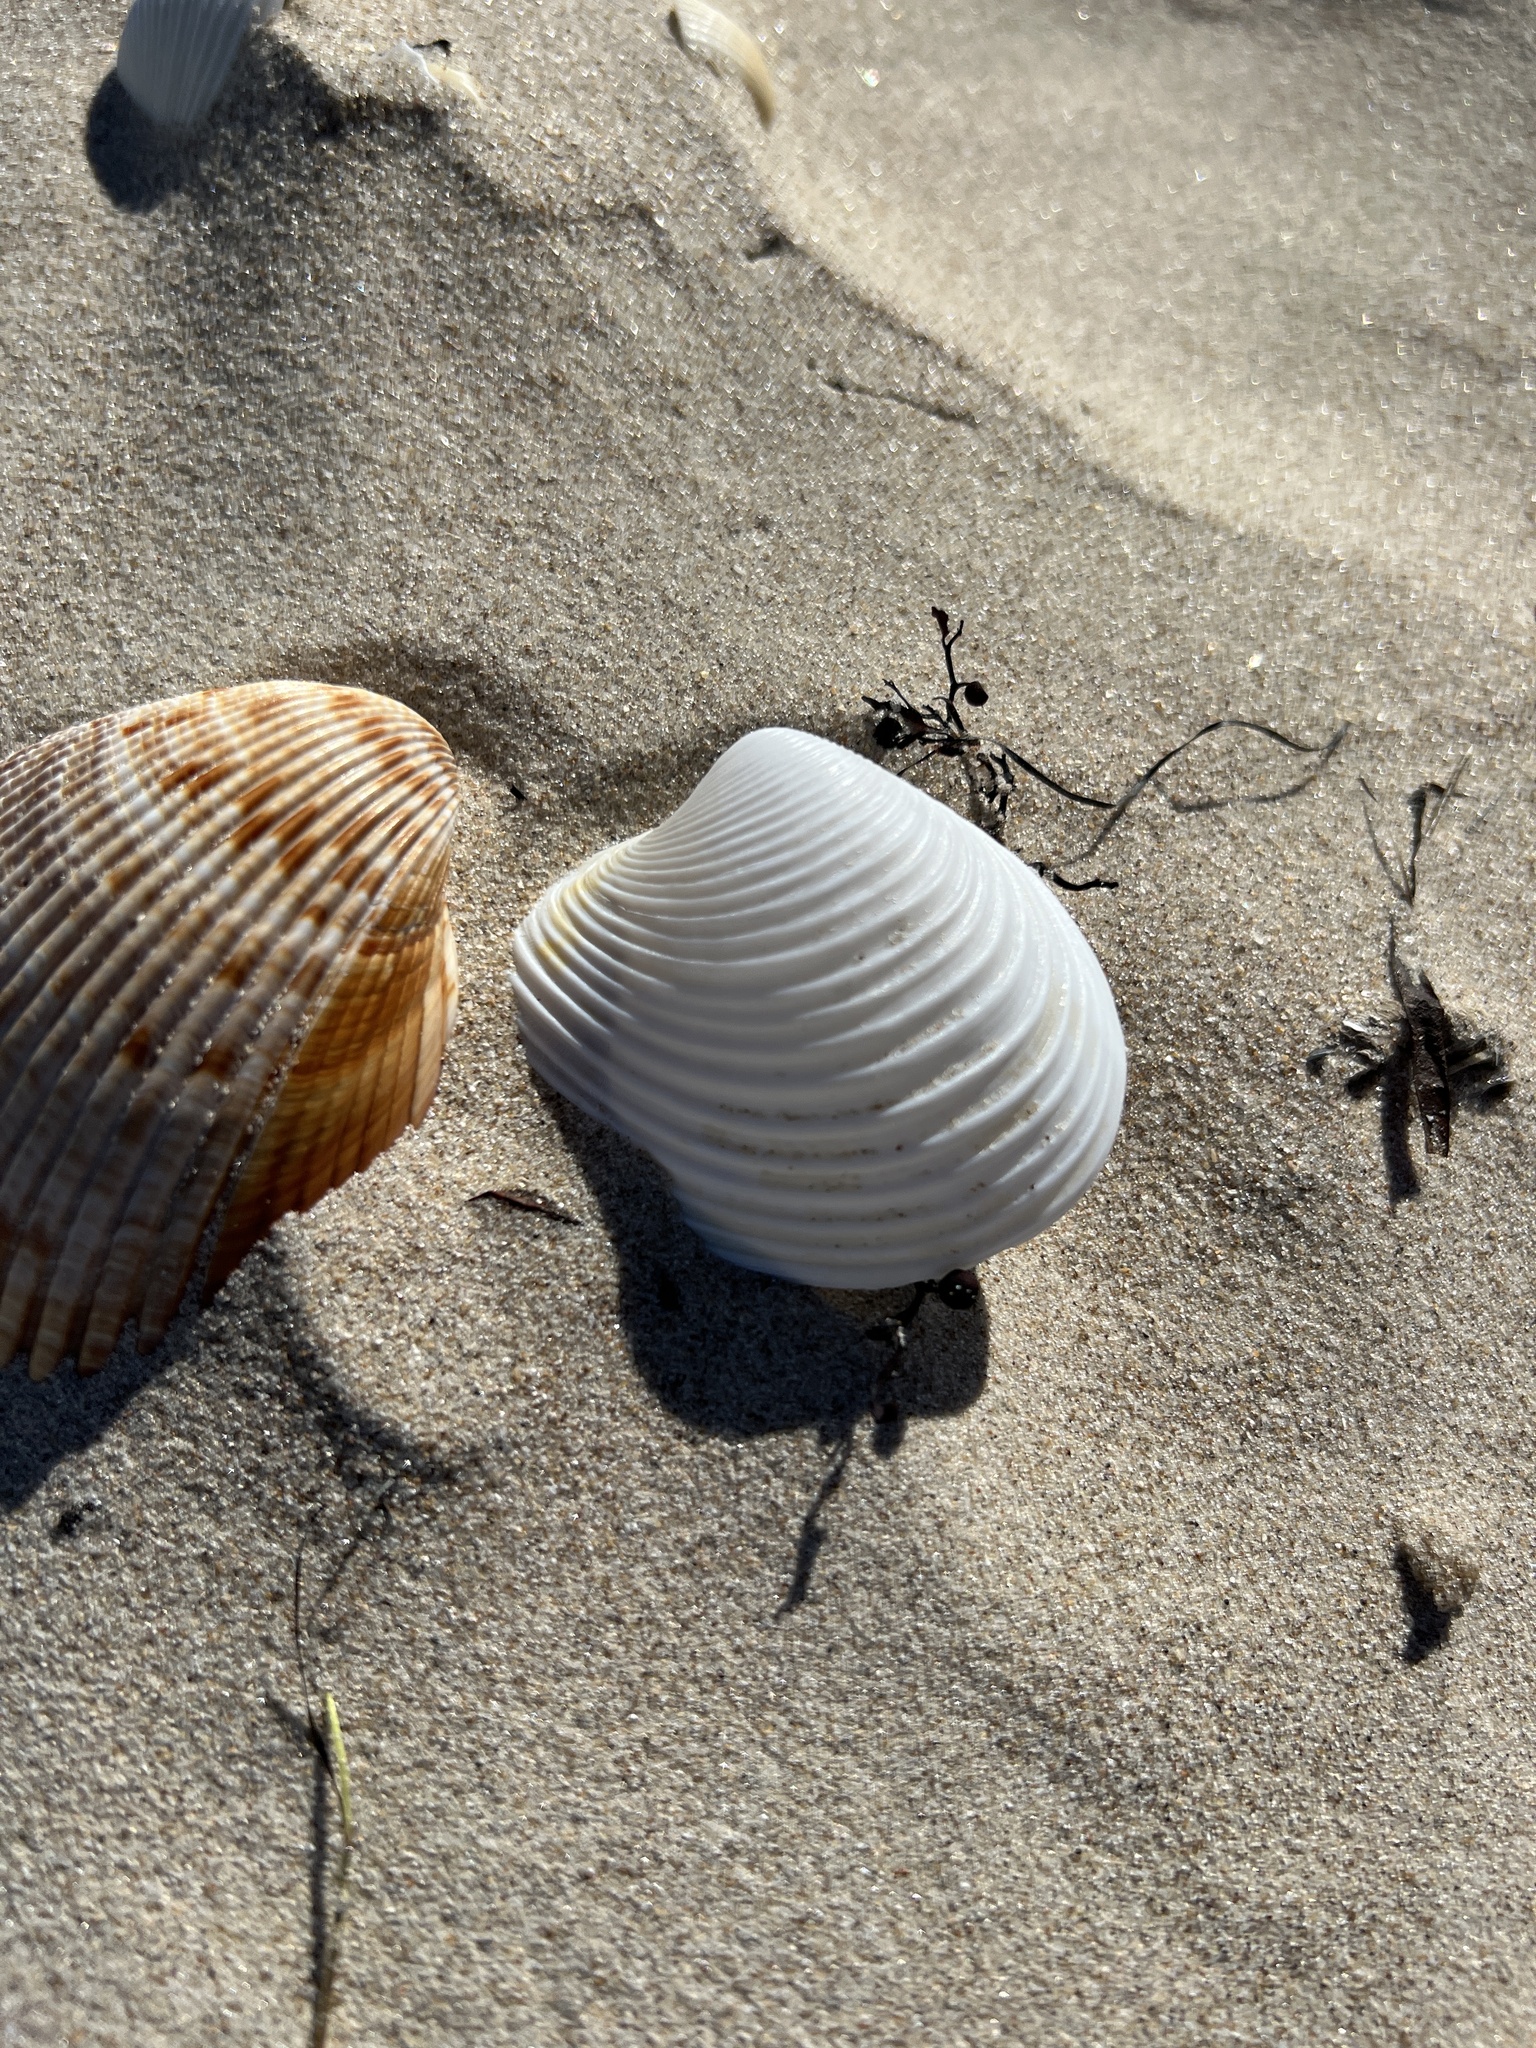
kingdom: Animalia
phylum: Mollusca
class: Bivalvia
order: Venerida
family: Anatinellidae
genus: Raeta
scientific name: Raeta plicatella
